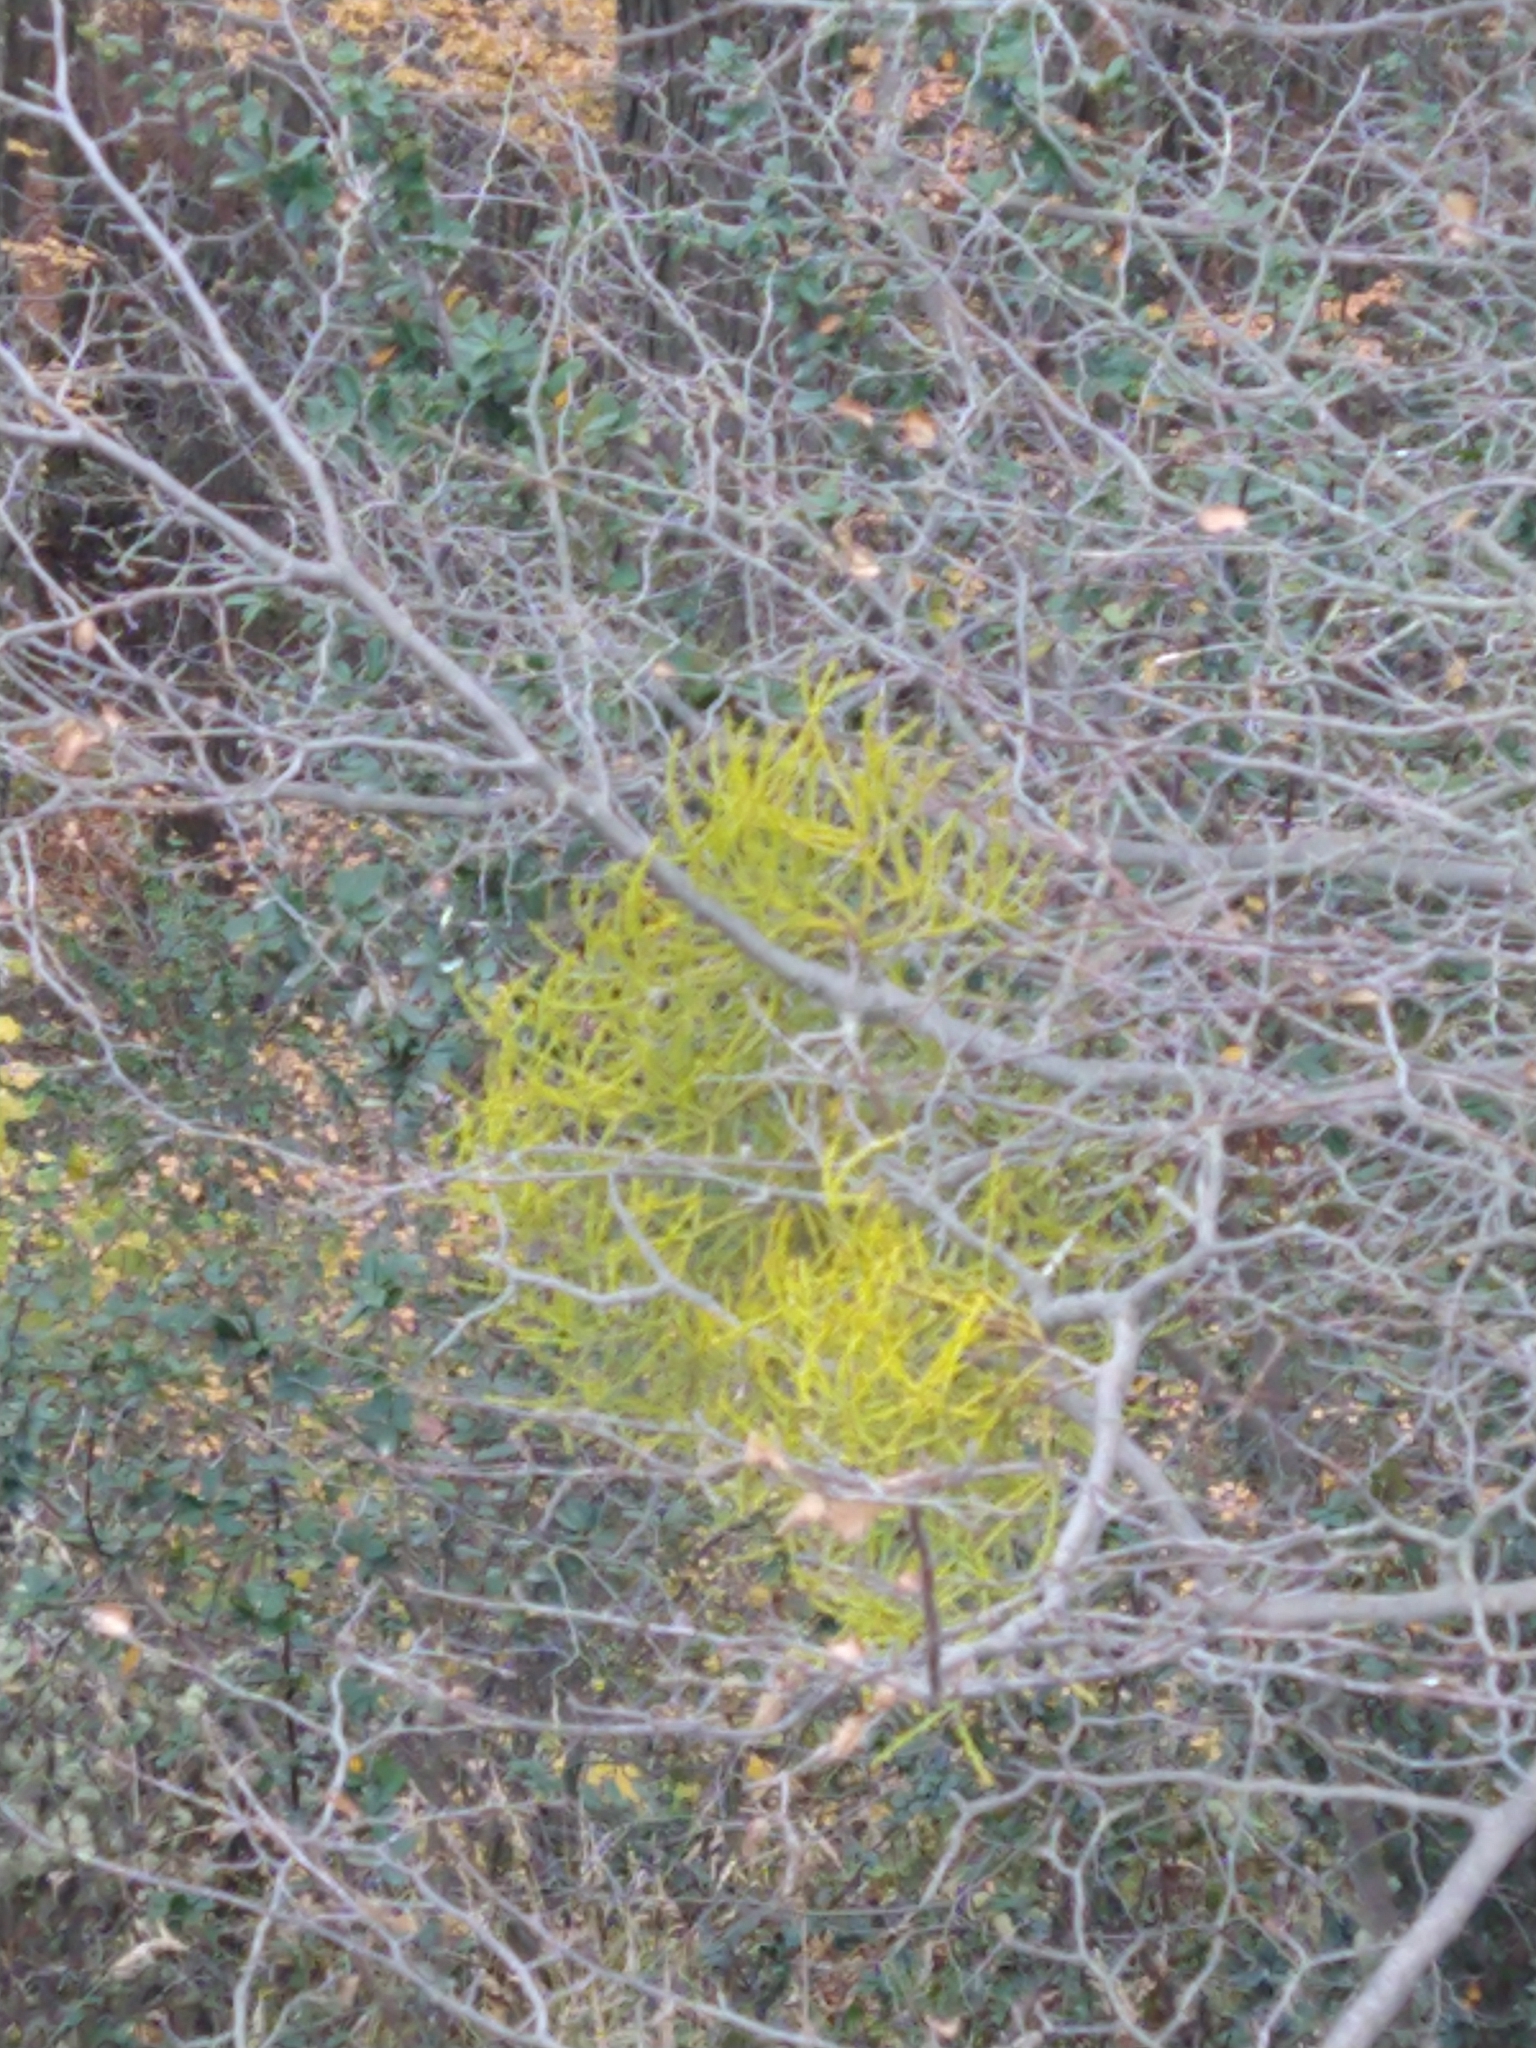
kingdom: Plantae
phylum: Tracheophyta
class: Magnoliopsida
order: Santalales
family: Misodendraceae
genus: Misodendrum
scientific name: Misodendrum punctulatum
